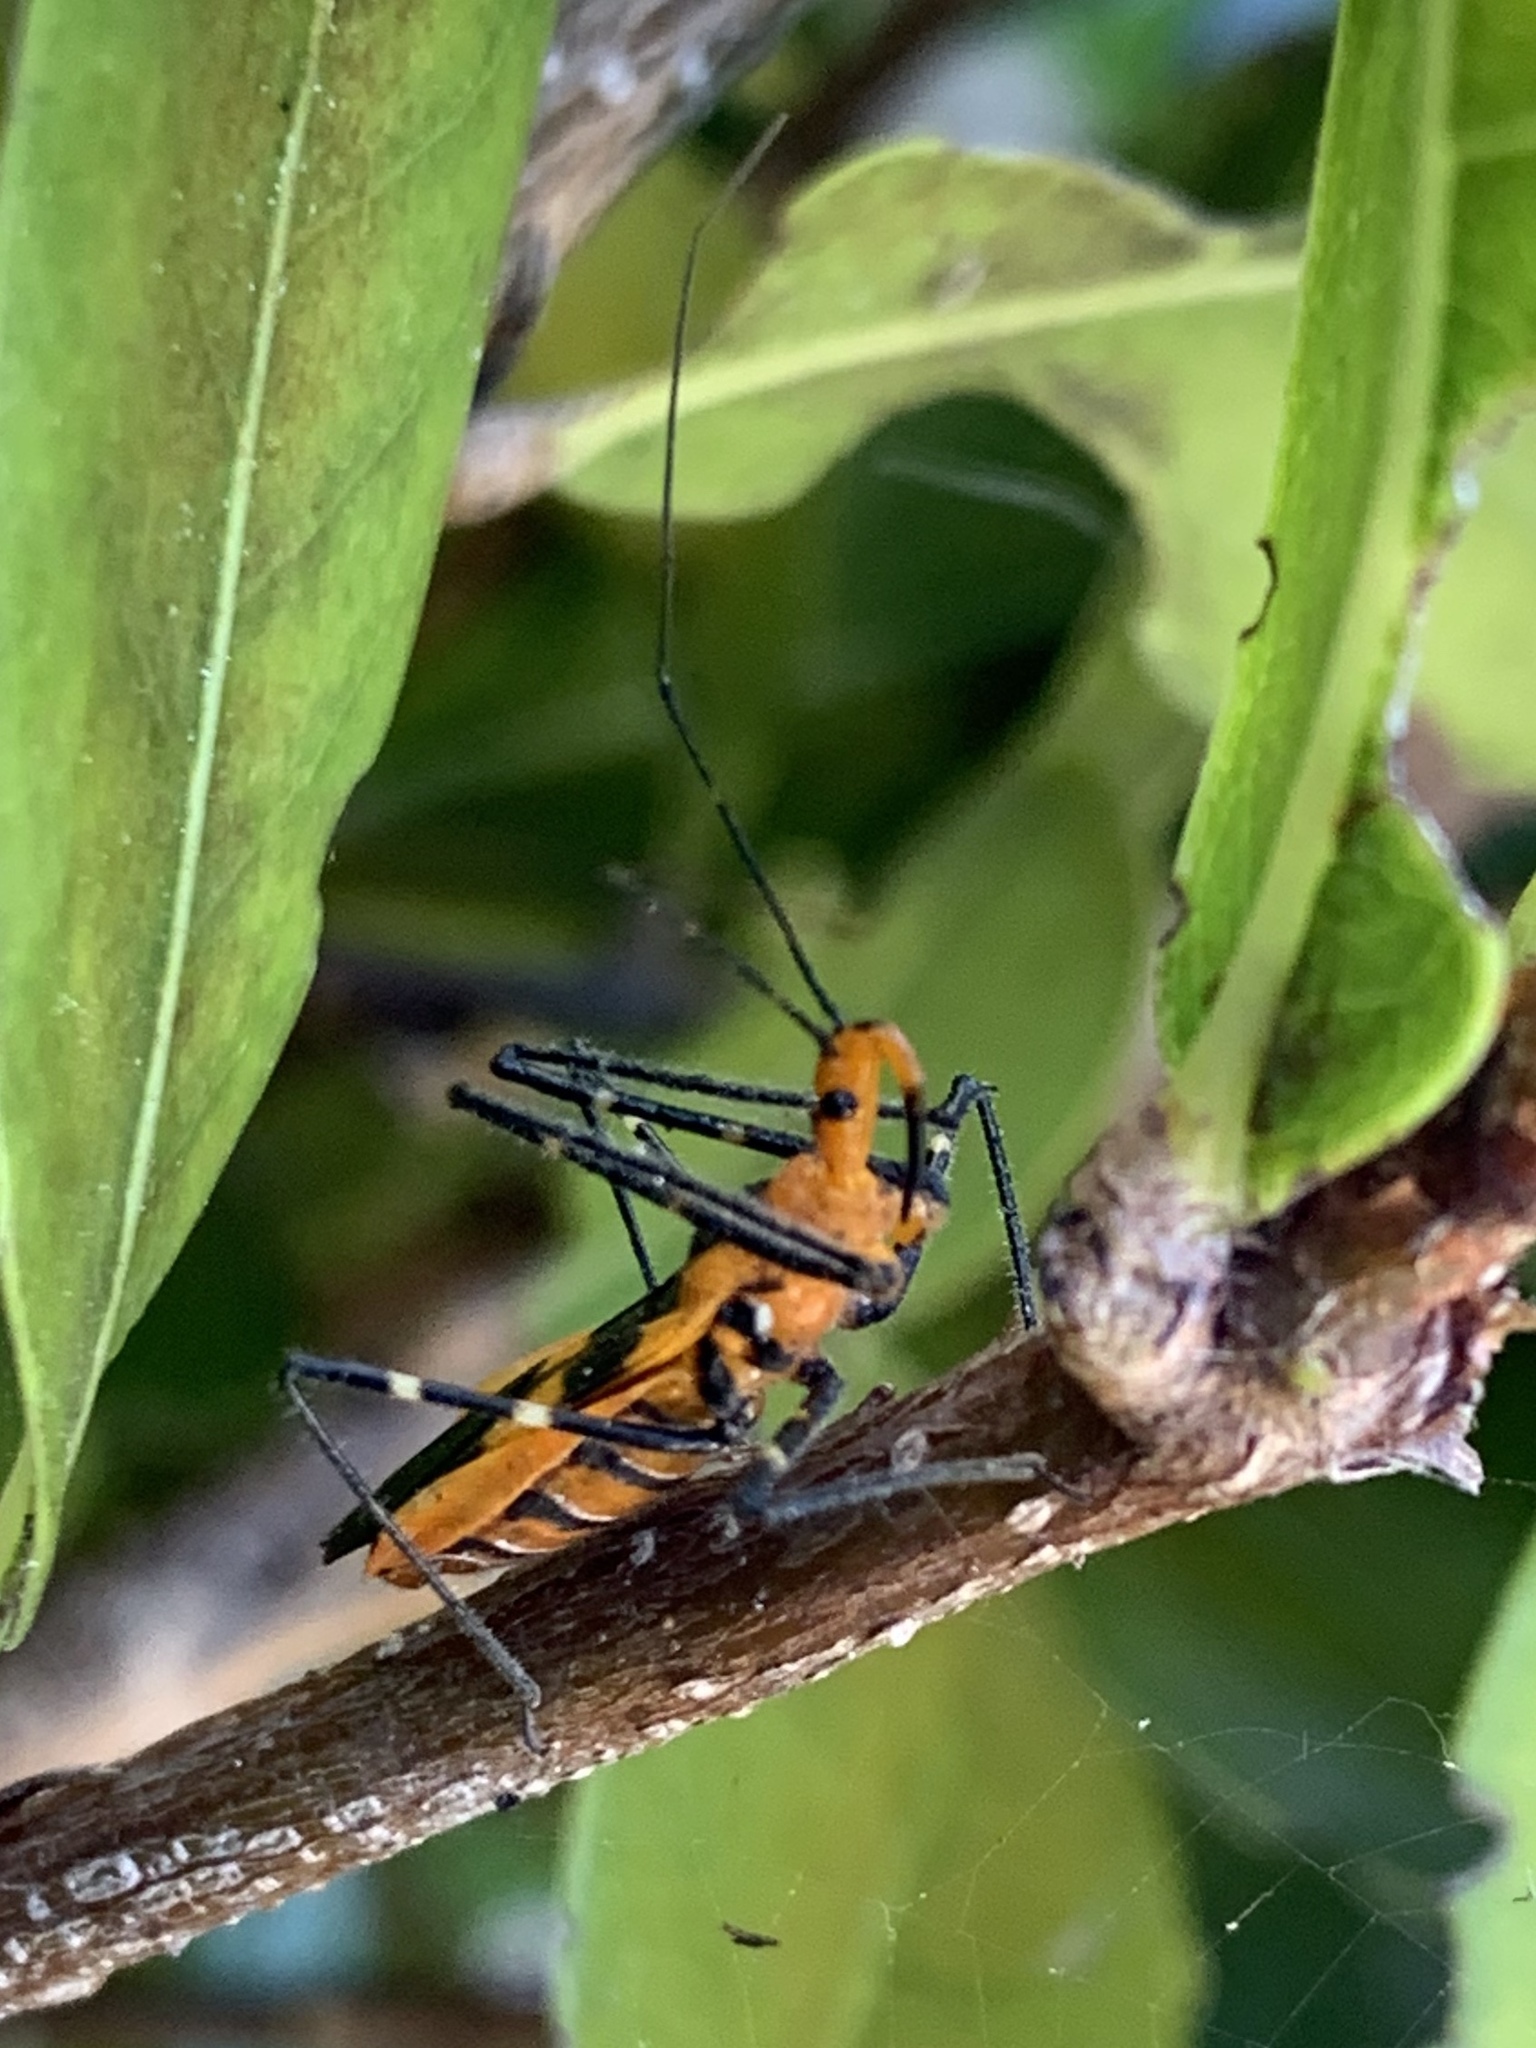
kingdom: Animalia
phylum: Arthropoda
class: Insecta
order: Hemiptera
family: Reduviidae
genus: Zelus
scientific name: Zelus longipes
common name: Milkweed assassin bug
